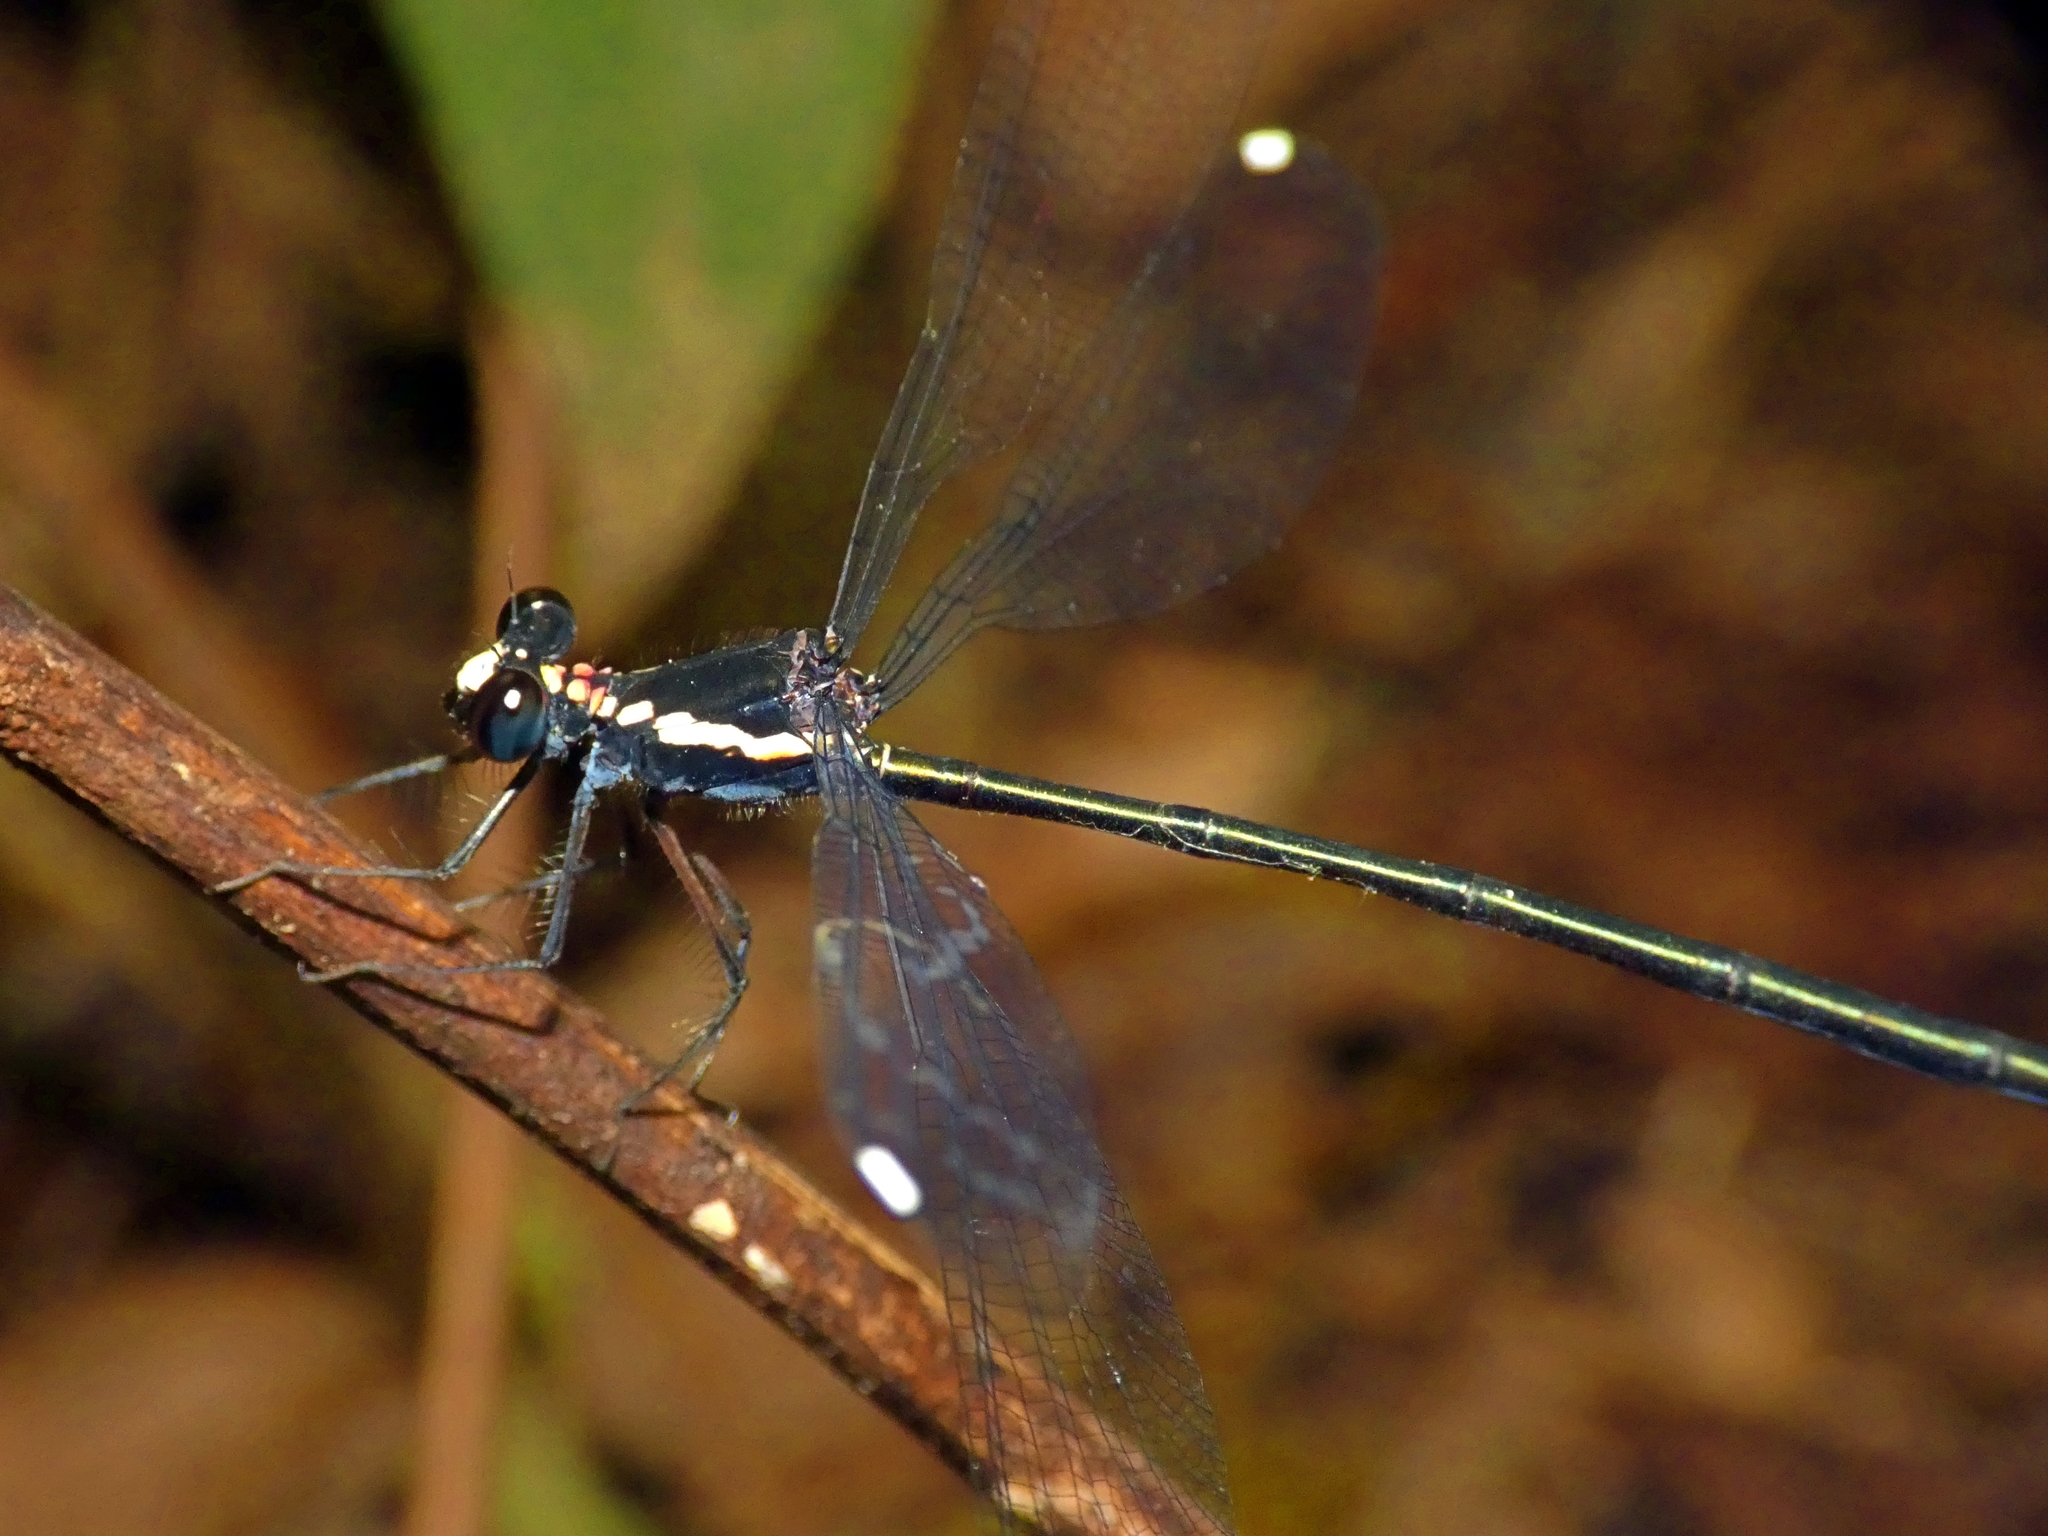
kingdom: Animalia
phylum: Arthropoda
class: Insecta
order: Odonata
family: Argiolestidae
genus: Podopteryx
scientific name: Podopteryx selysi
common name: Treehole flatwing
